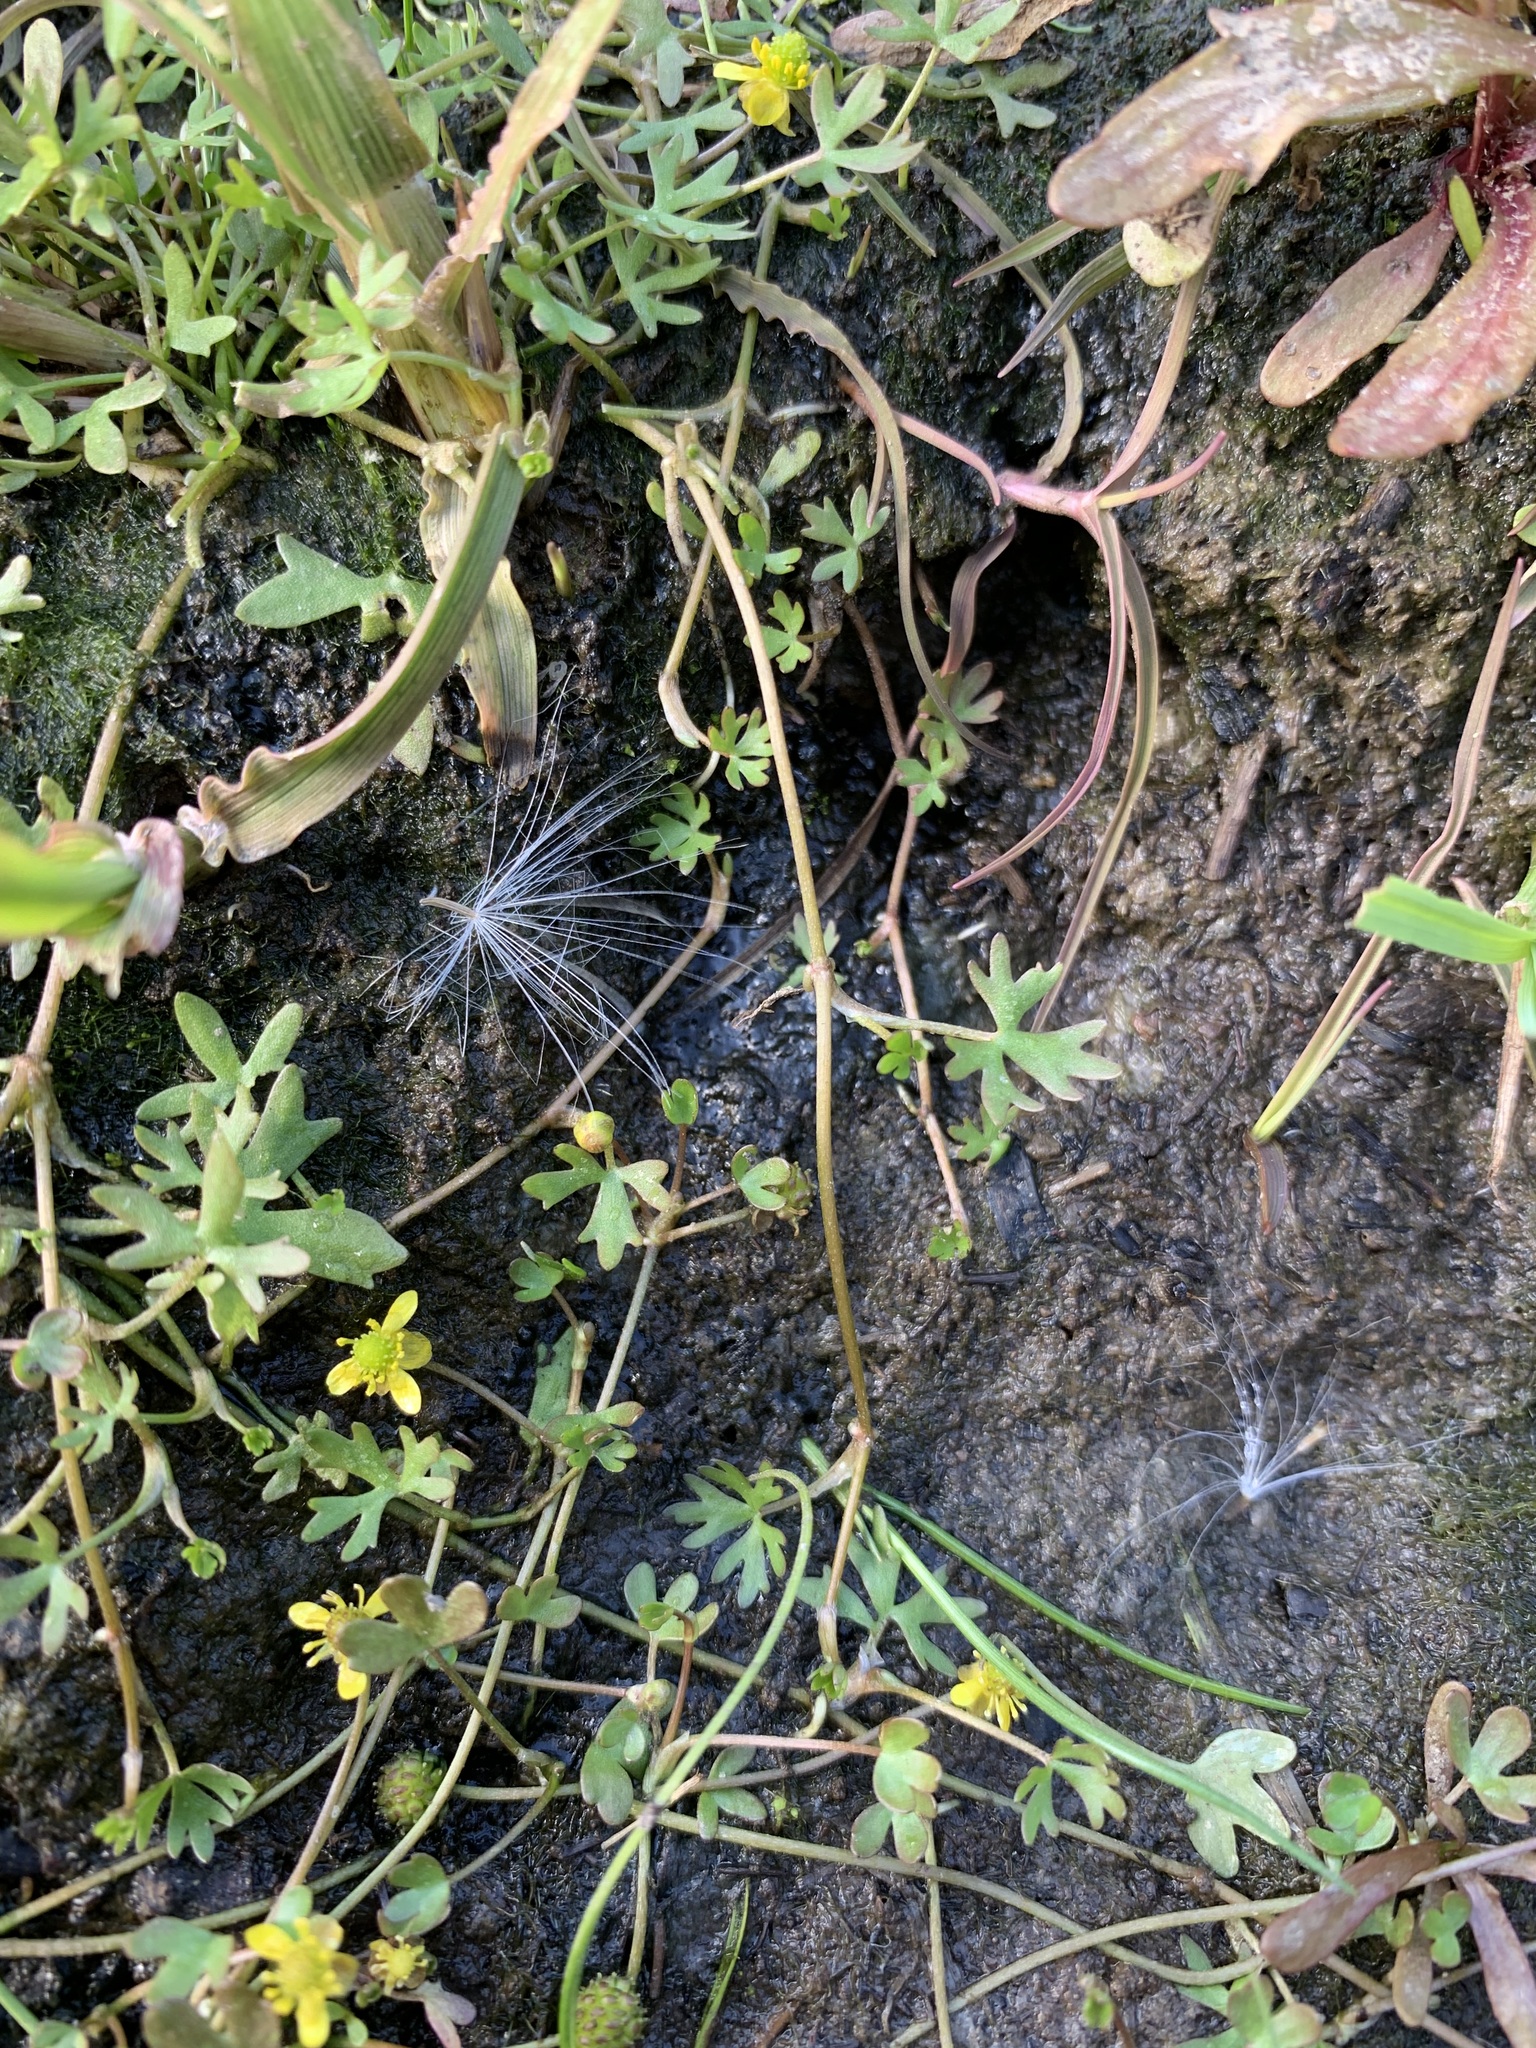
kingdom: Plantae
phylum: Tracheophyta
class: Magnoliopsida
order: Ranunculales
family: Ranunculaceae
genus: Ranunculus
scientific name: Ranunculus gmelinii
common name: Gmelin's buttercup
